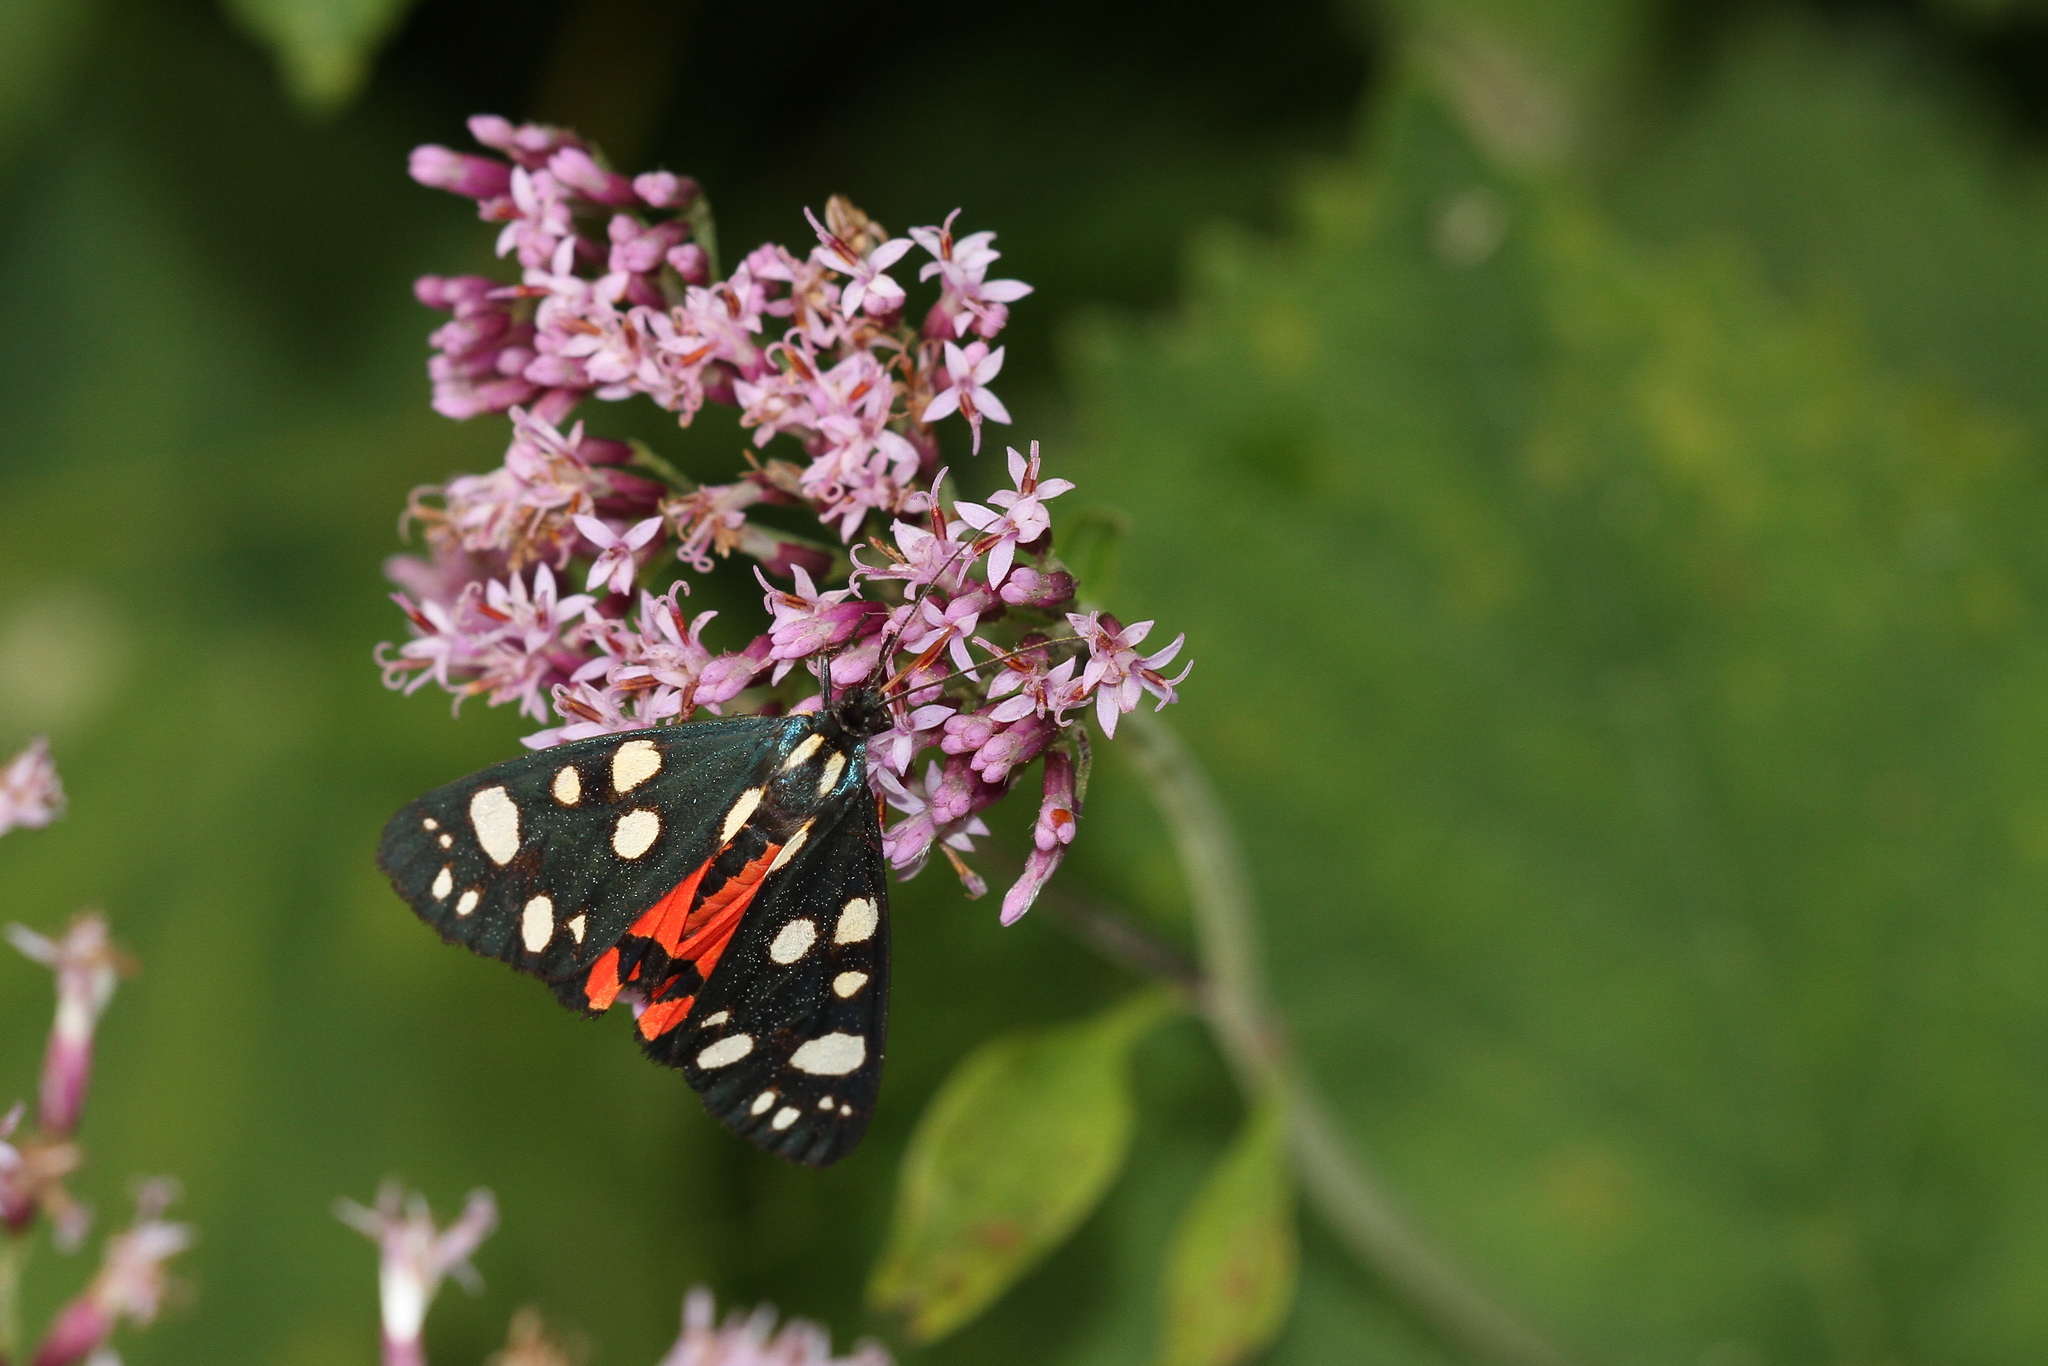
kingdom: Animalia
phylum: Arthropoda
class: Insecta
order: Lepidoptera
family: Erebidae
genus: Callimorpha
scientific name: Callimorpha dominula
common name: Scarlet tiger
